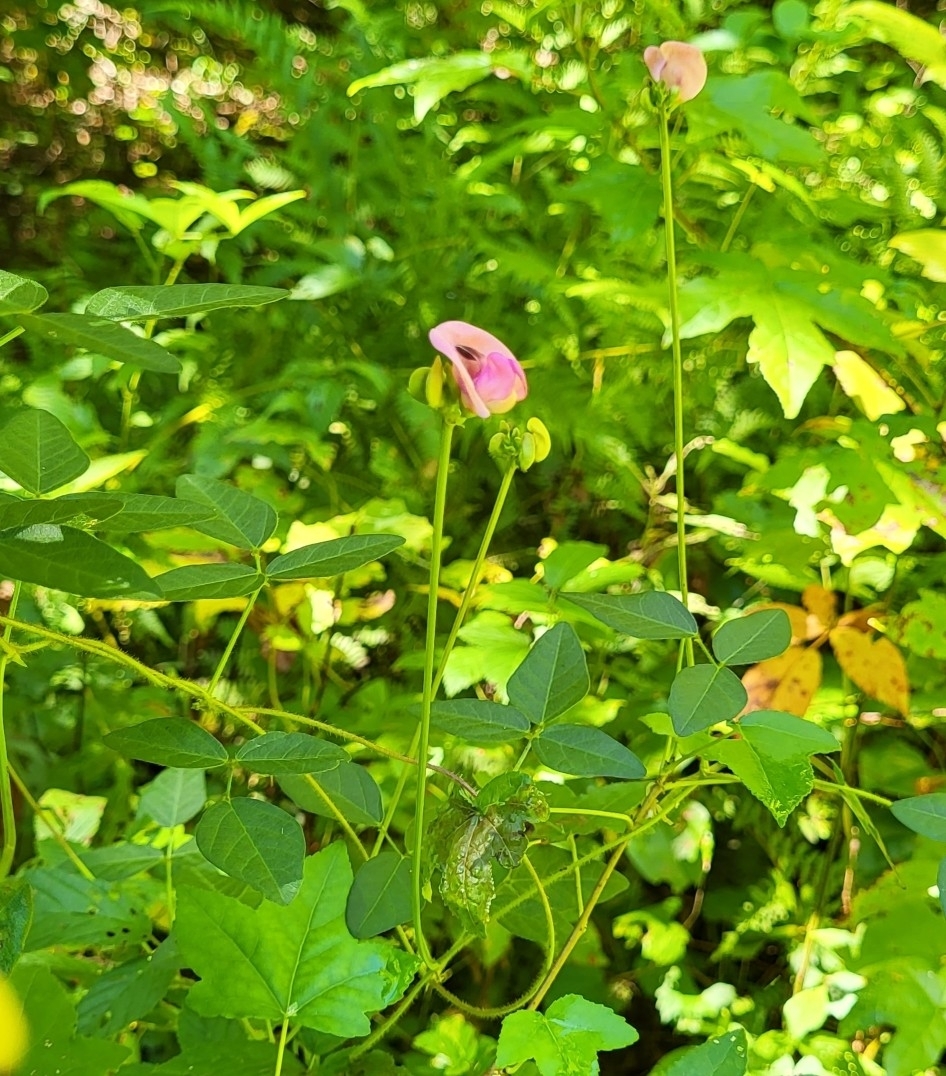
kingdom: Plantae
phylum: Tracheophyta
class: Magnoliopsida
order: Fabales
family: Fabaceae
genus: Strophostyles
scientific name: Strophostyles umbellata
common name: Perennial wild bean
